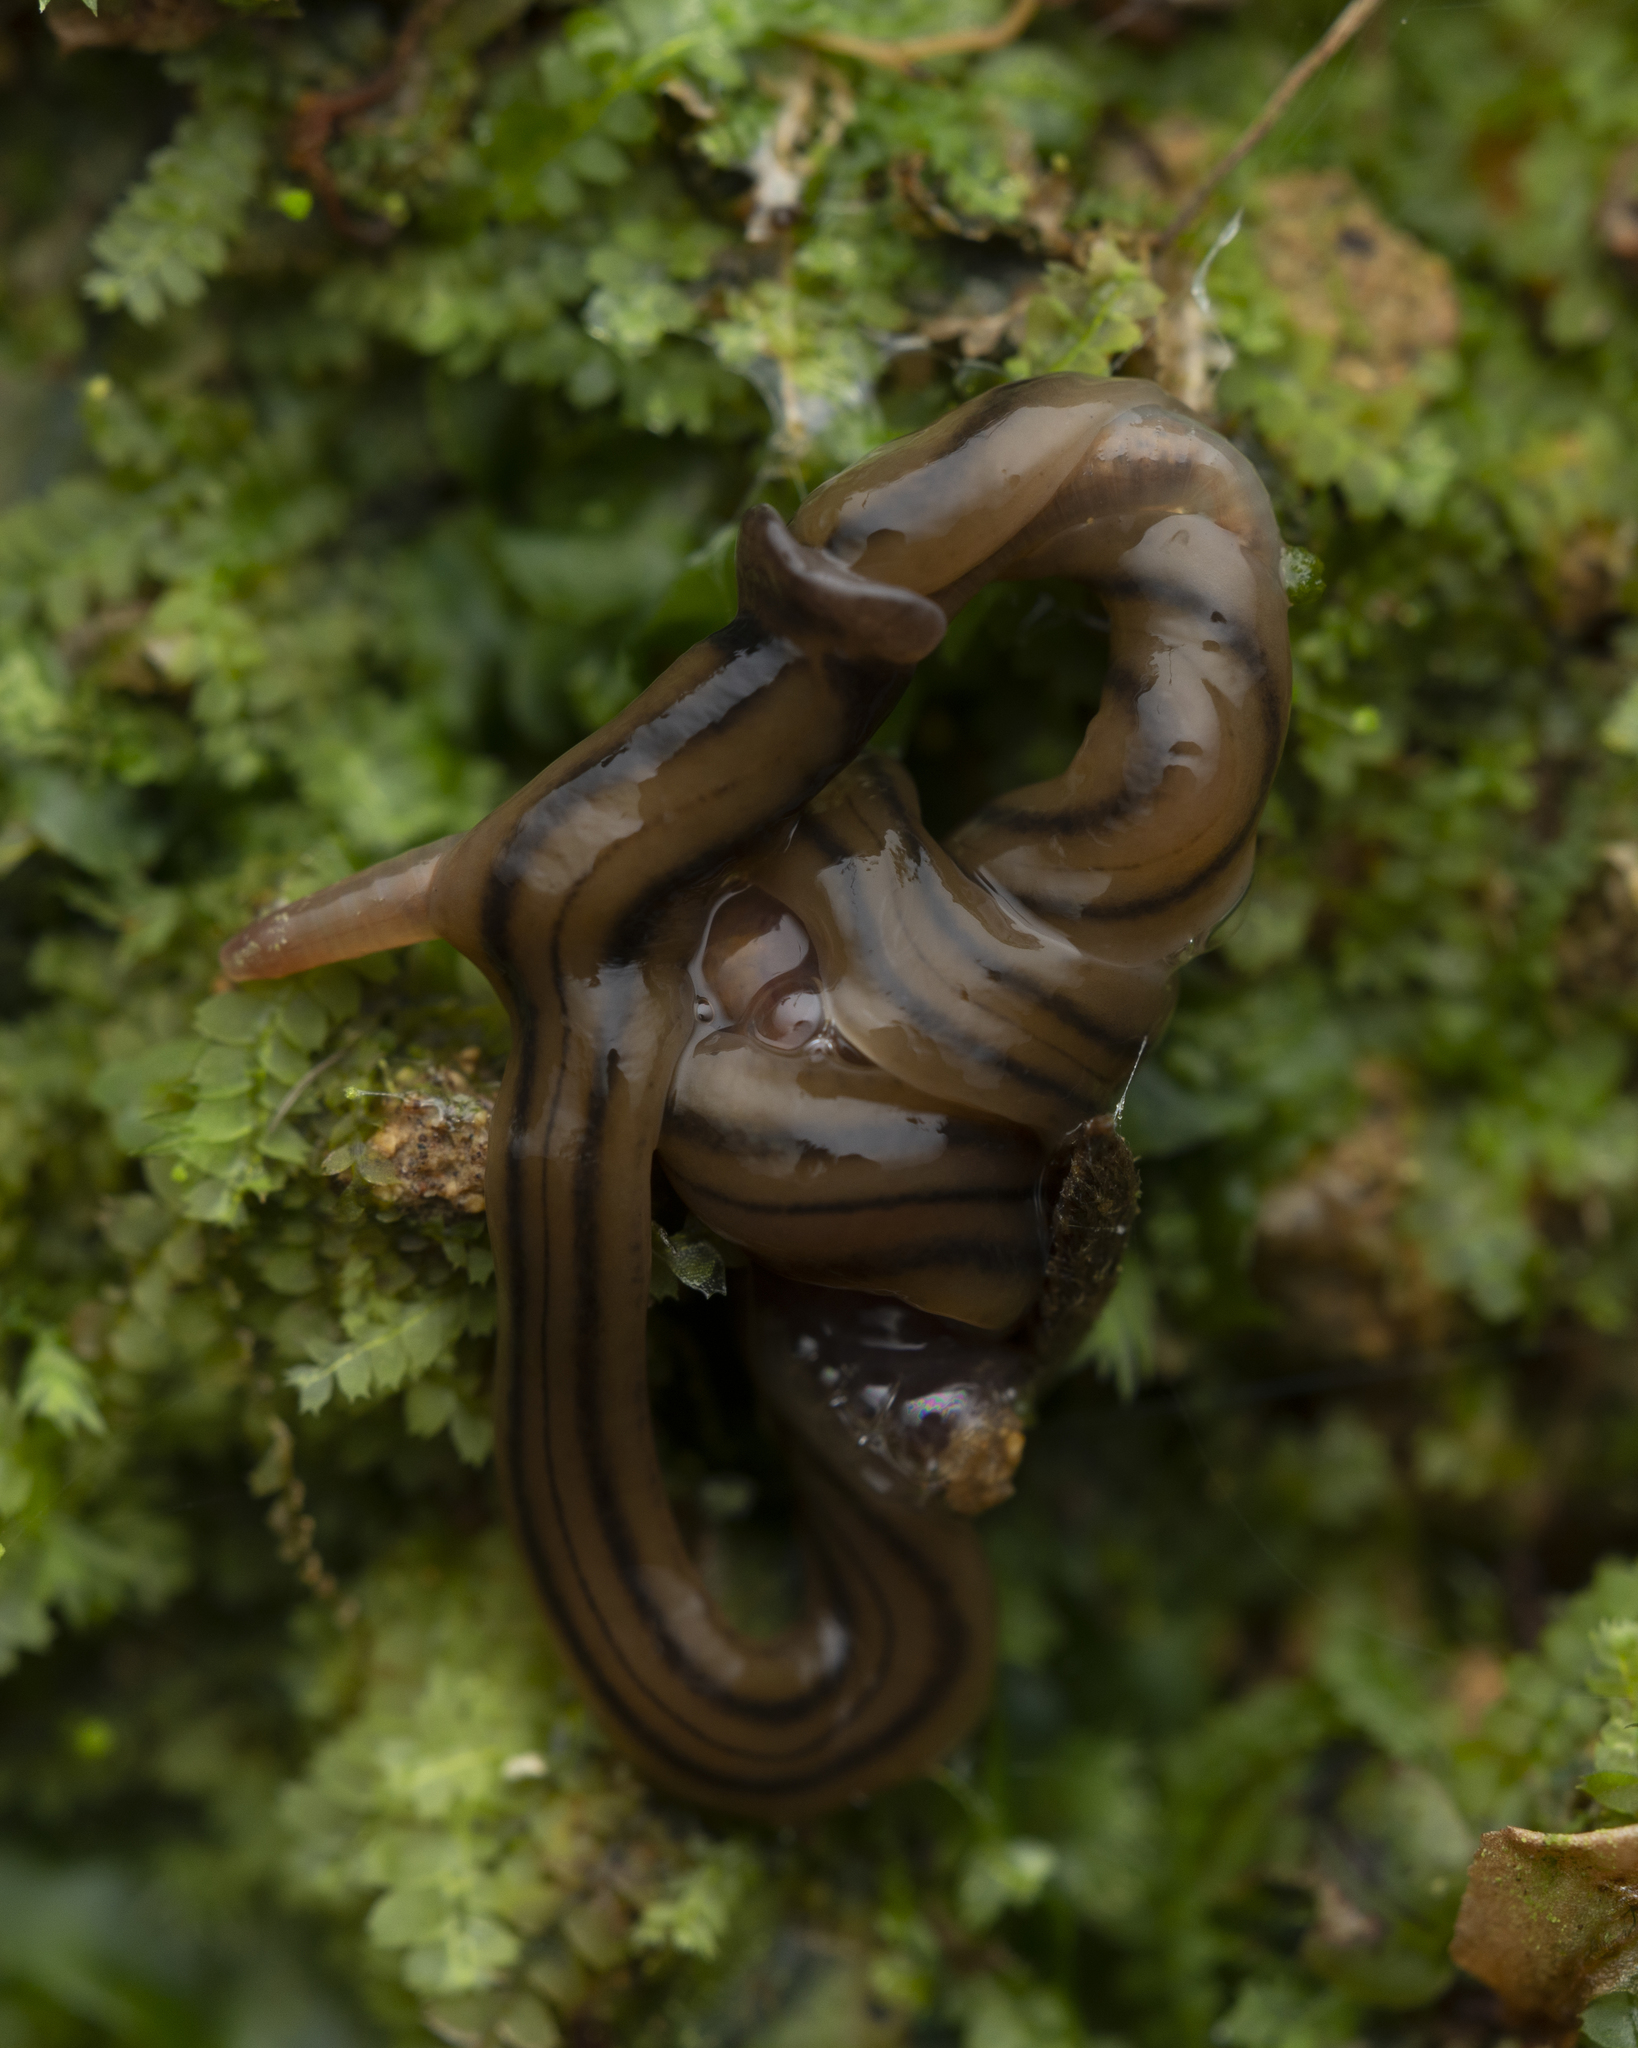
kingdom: Animalia
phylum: Platyhelminthes
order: Tricladida
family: Geoplanidae
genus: Bipalium
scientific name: Bipalium kewense
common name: Hammerhead flatworm
